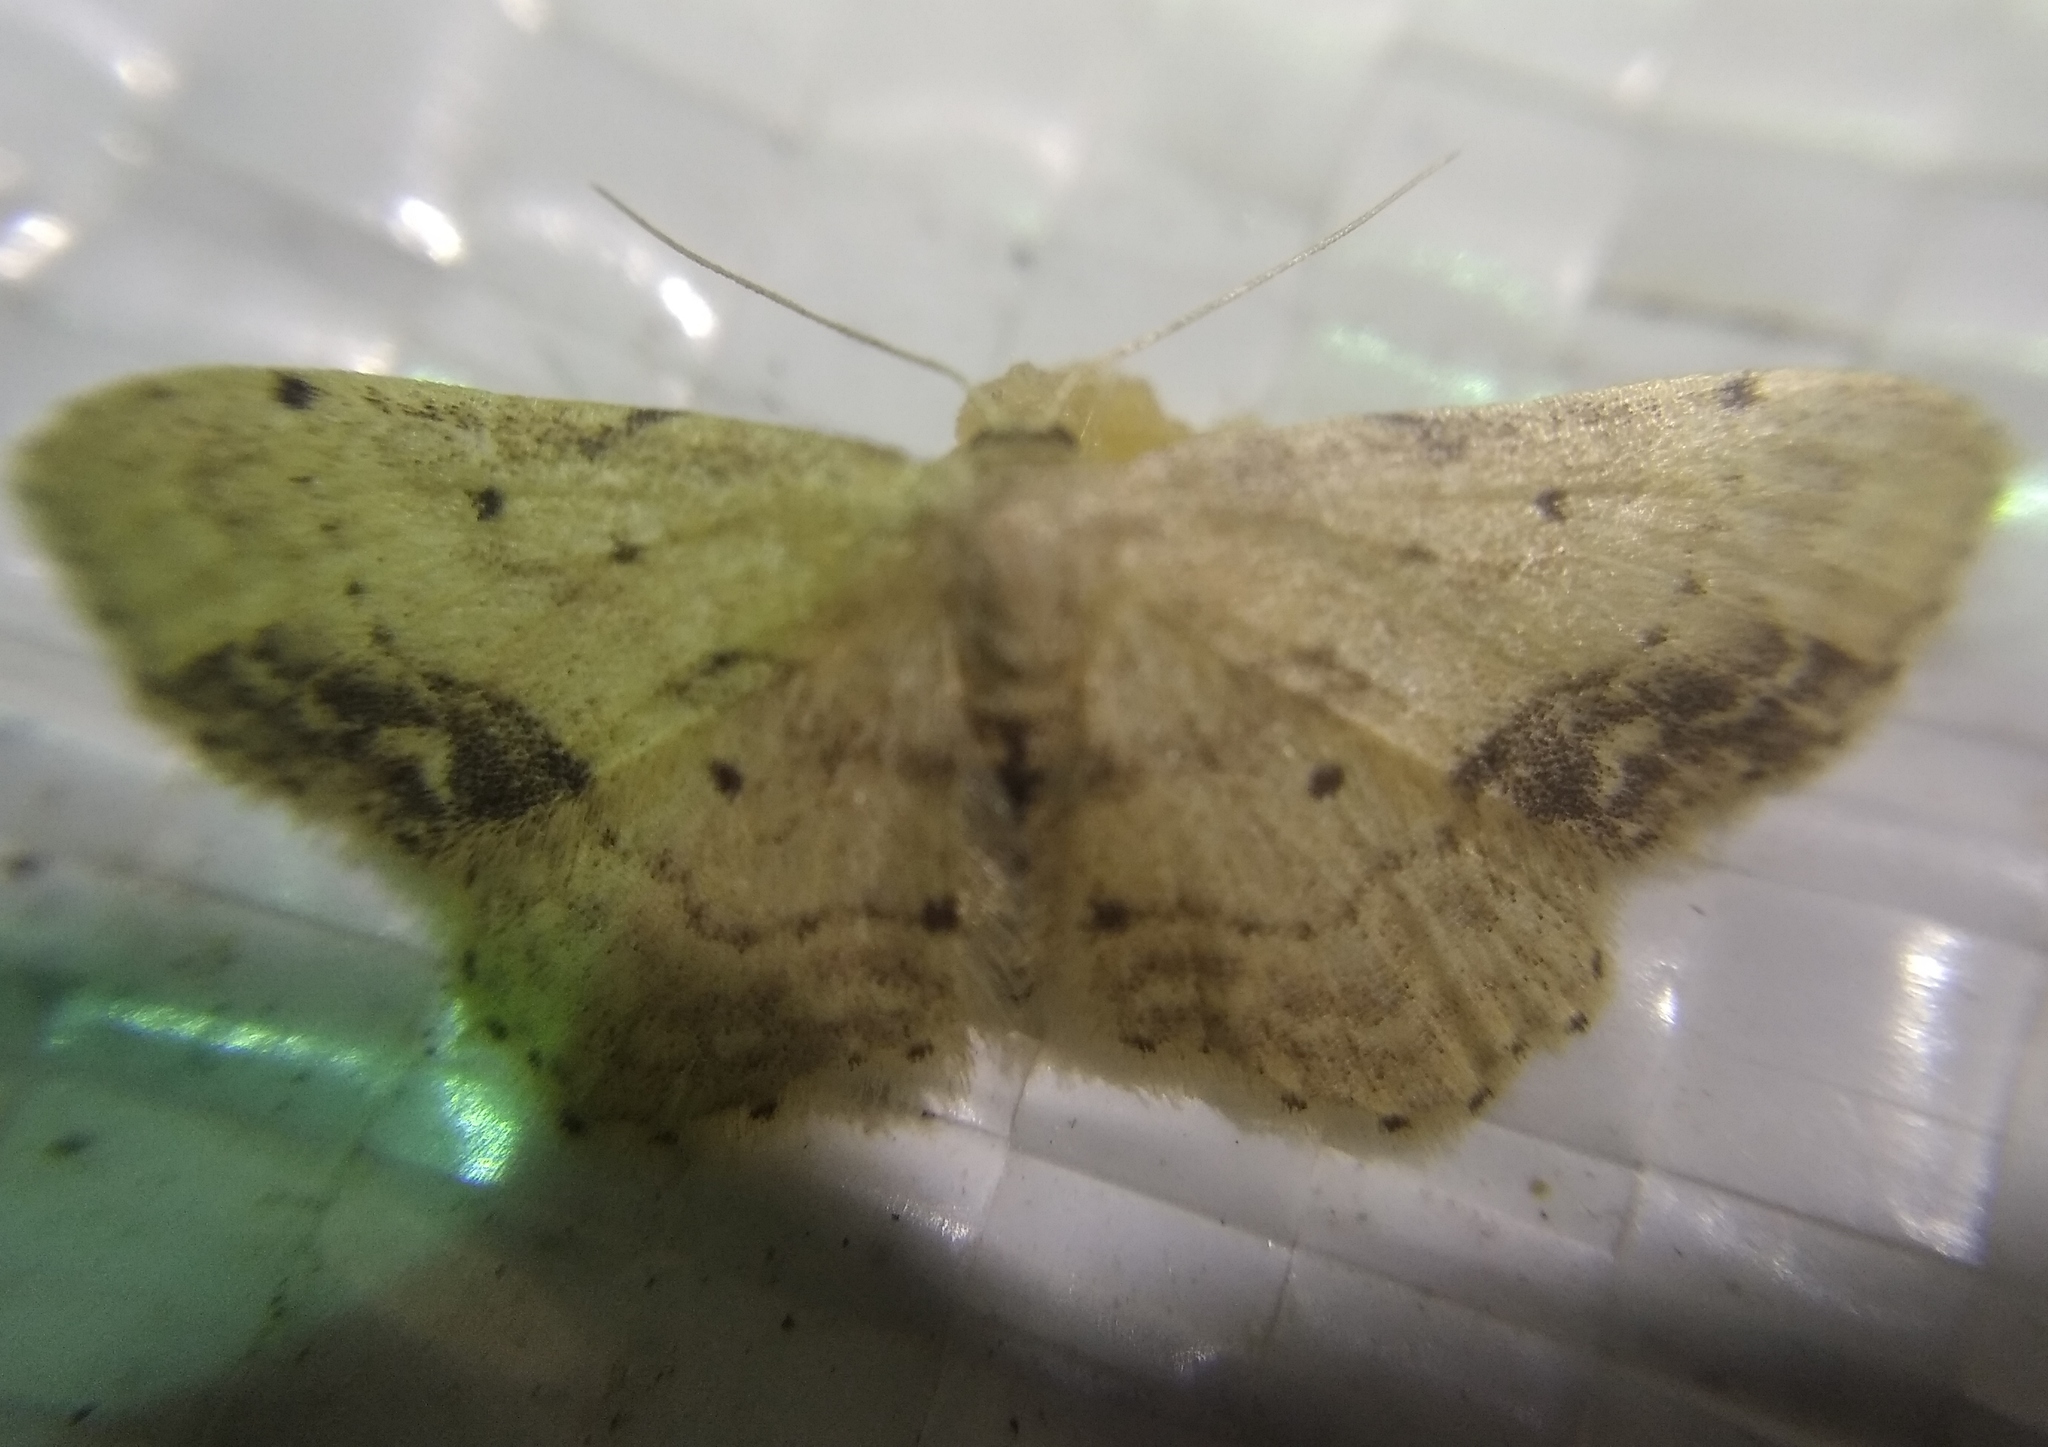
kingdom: Animalia
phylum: Arthropoda
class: Insecta
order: Lepidoptera
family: Geometridae
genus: Idaea
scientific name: Idaea dimidiata
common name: Single-dotted wave
